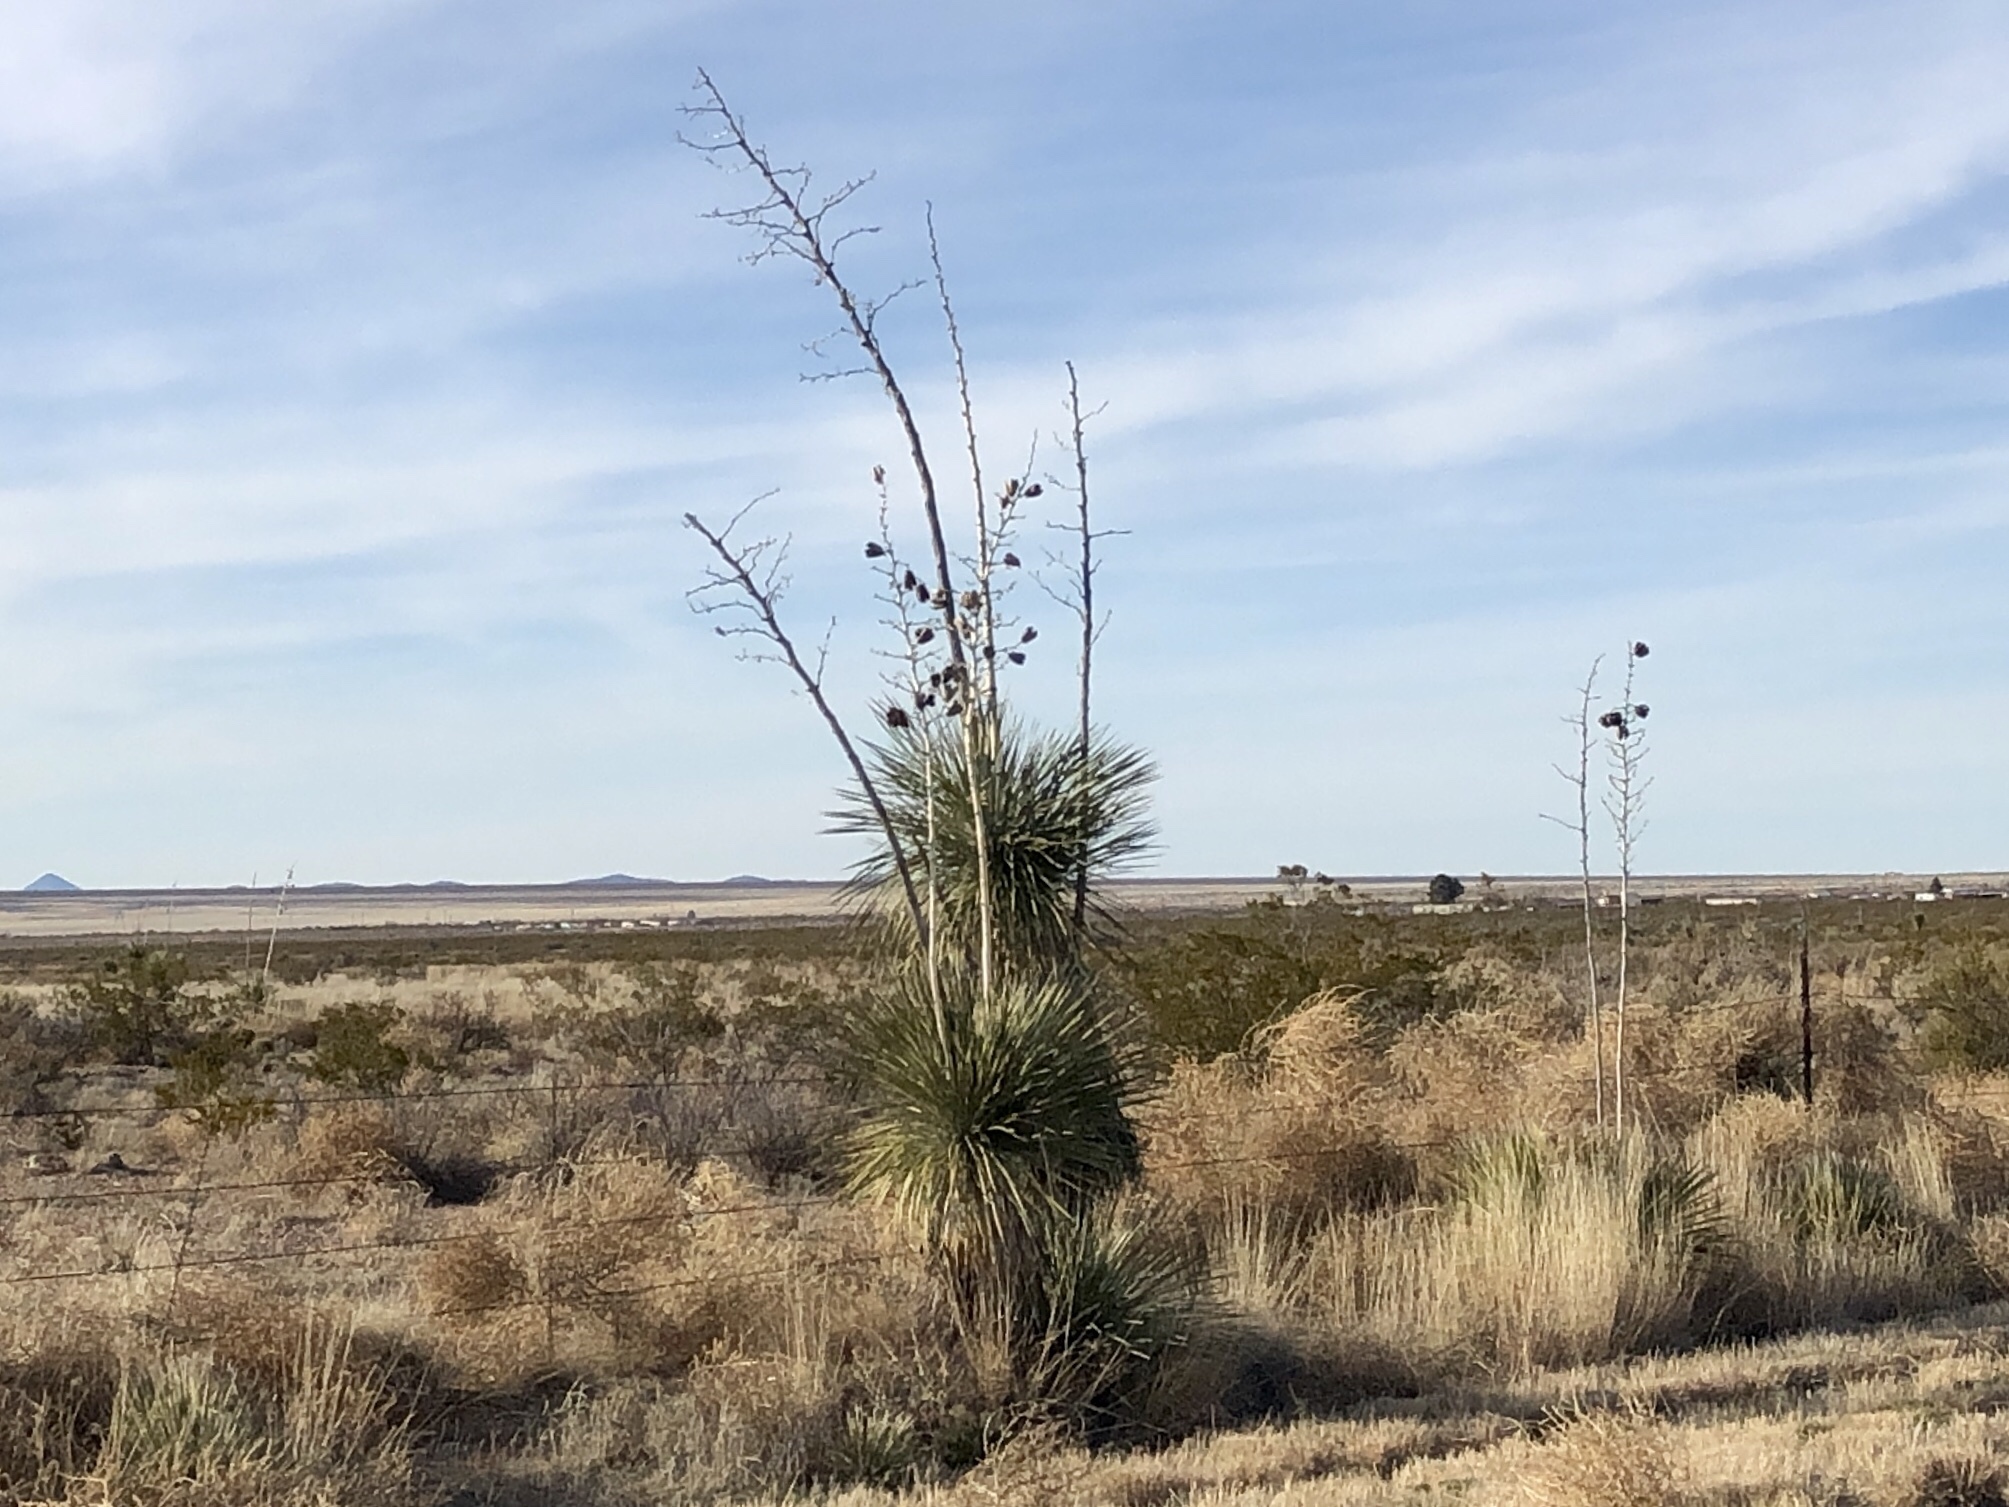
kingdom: Plantae
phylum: Tracheophyta
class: Liliopsida
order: Asparagales
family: Asparagaceae
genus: Yucca
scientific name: Yucca elata
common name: Palmella
